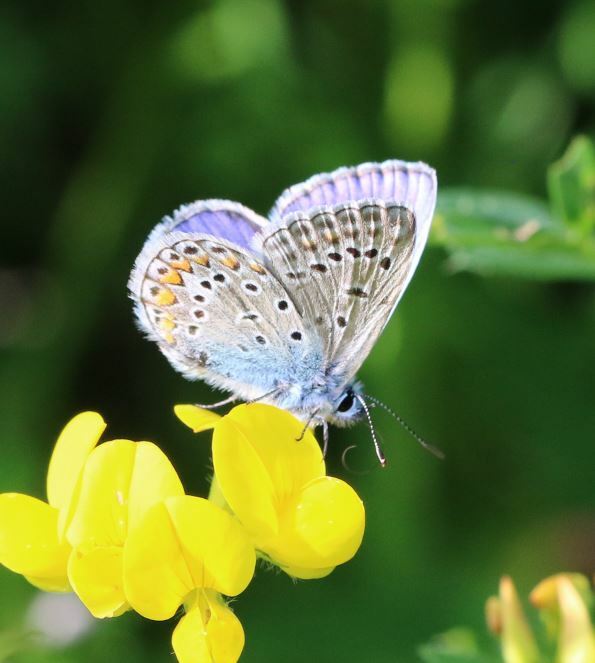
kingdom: Animalia
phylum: Arthropoda
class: Insecta
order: Lepidoptera
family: Lycaenidae
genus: Polyommatus
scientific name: Polyommatus icarus
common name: Common blue
